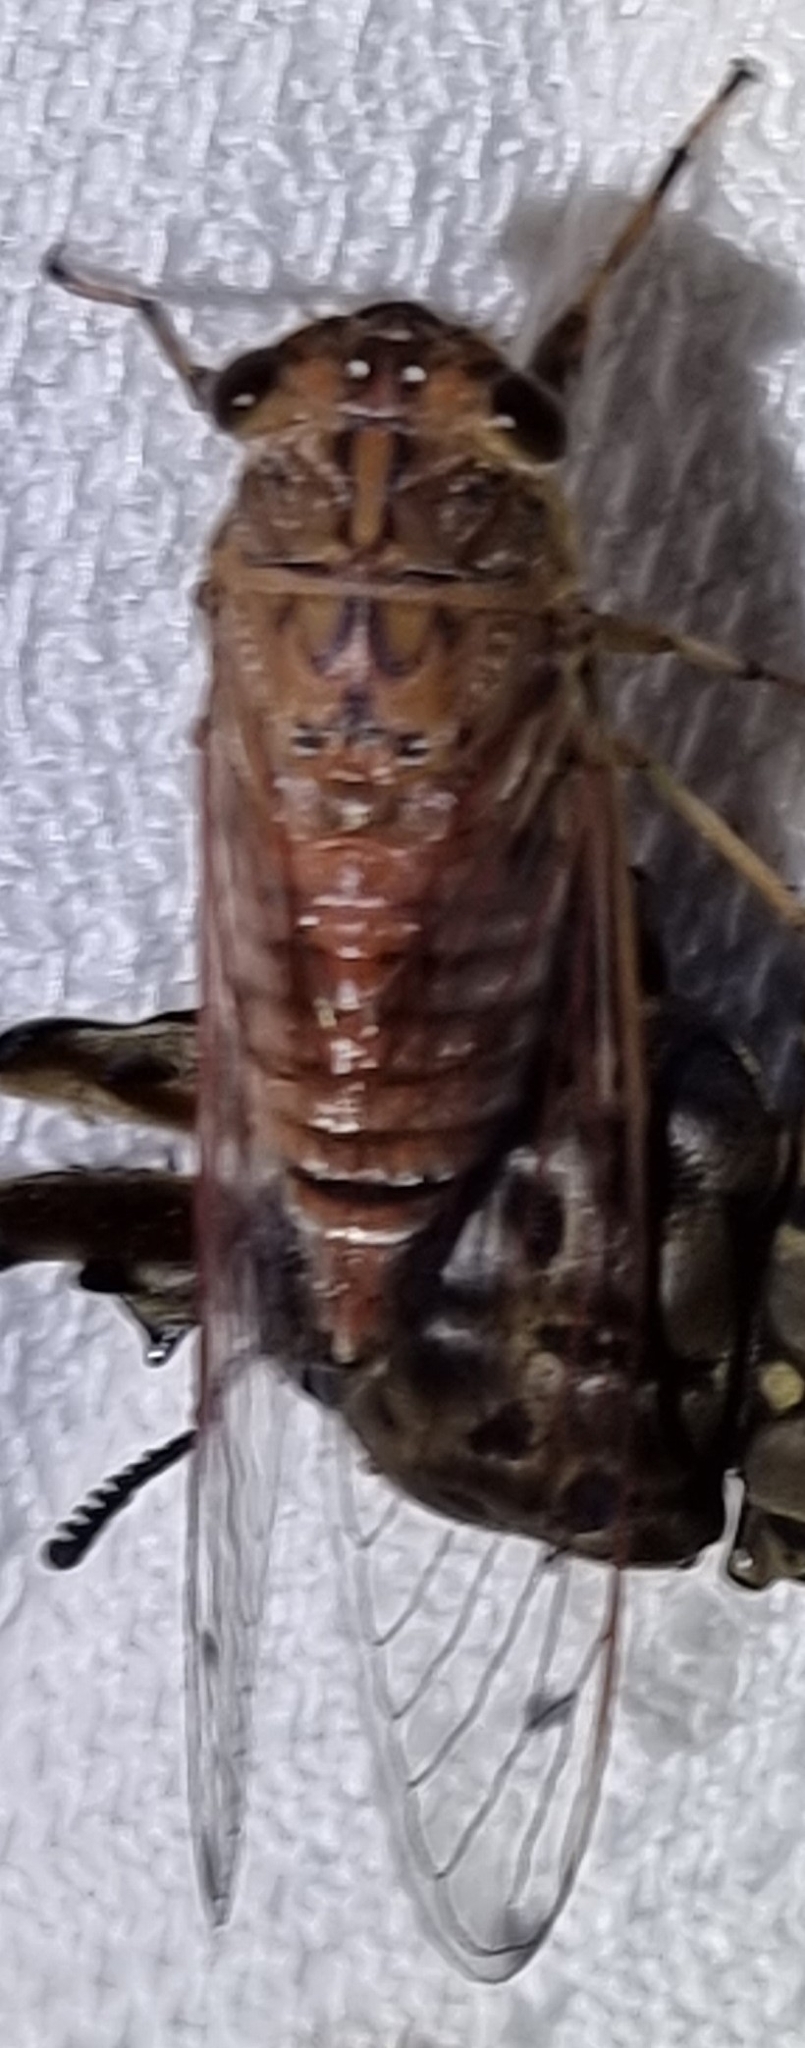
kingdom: Animalia
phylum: Arthropoda
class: Insecta
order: Hemiptera
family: Cicadidae
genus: Tamasa
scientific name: Tamasa tristigma
